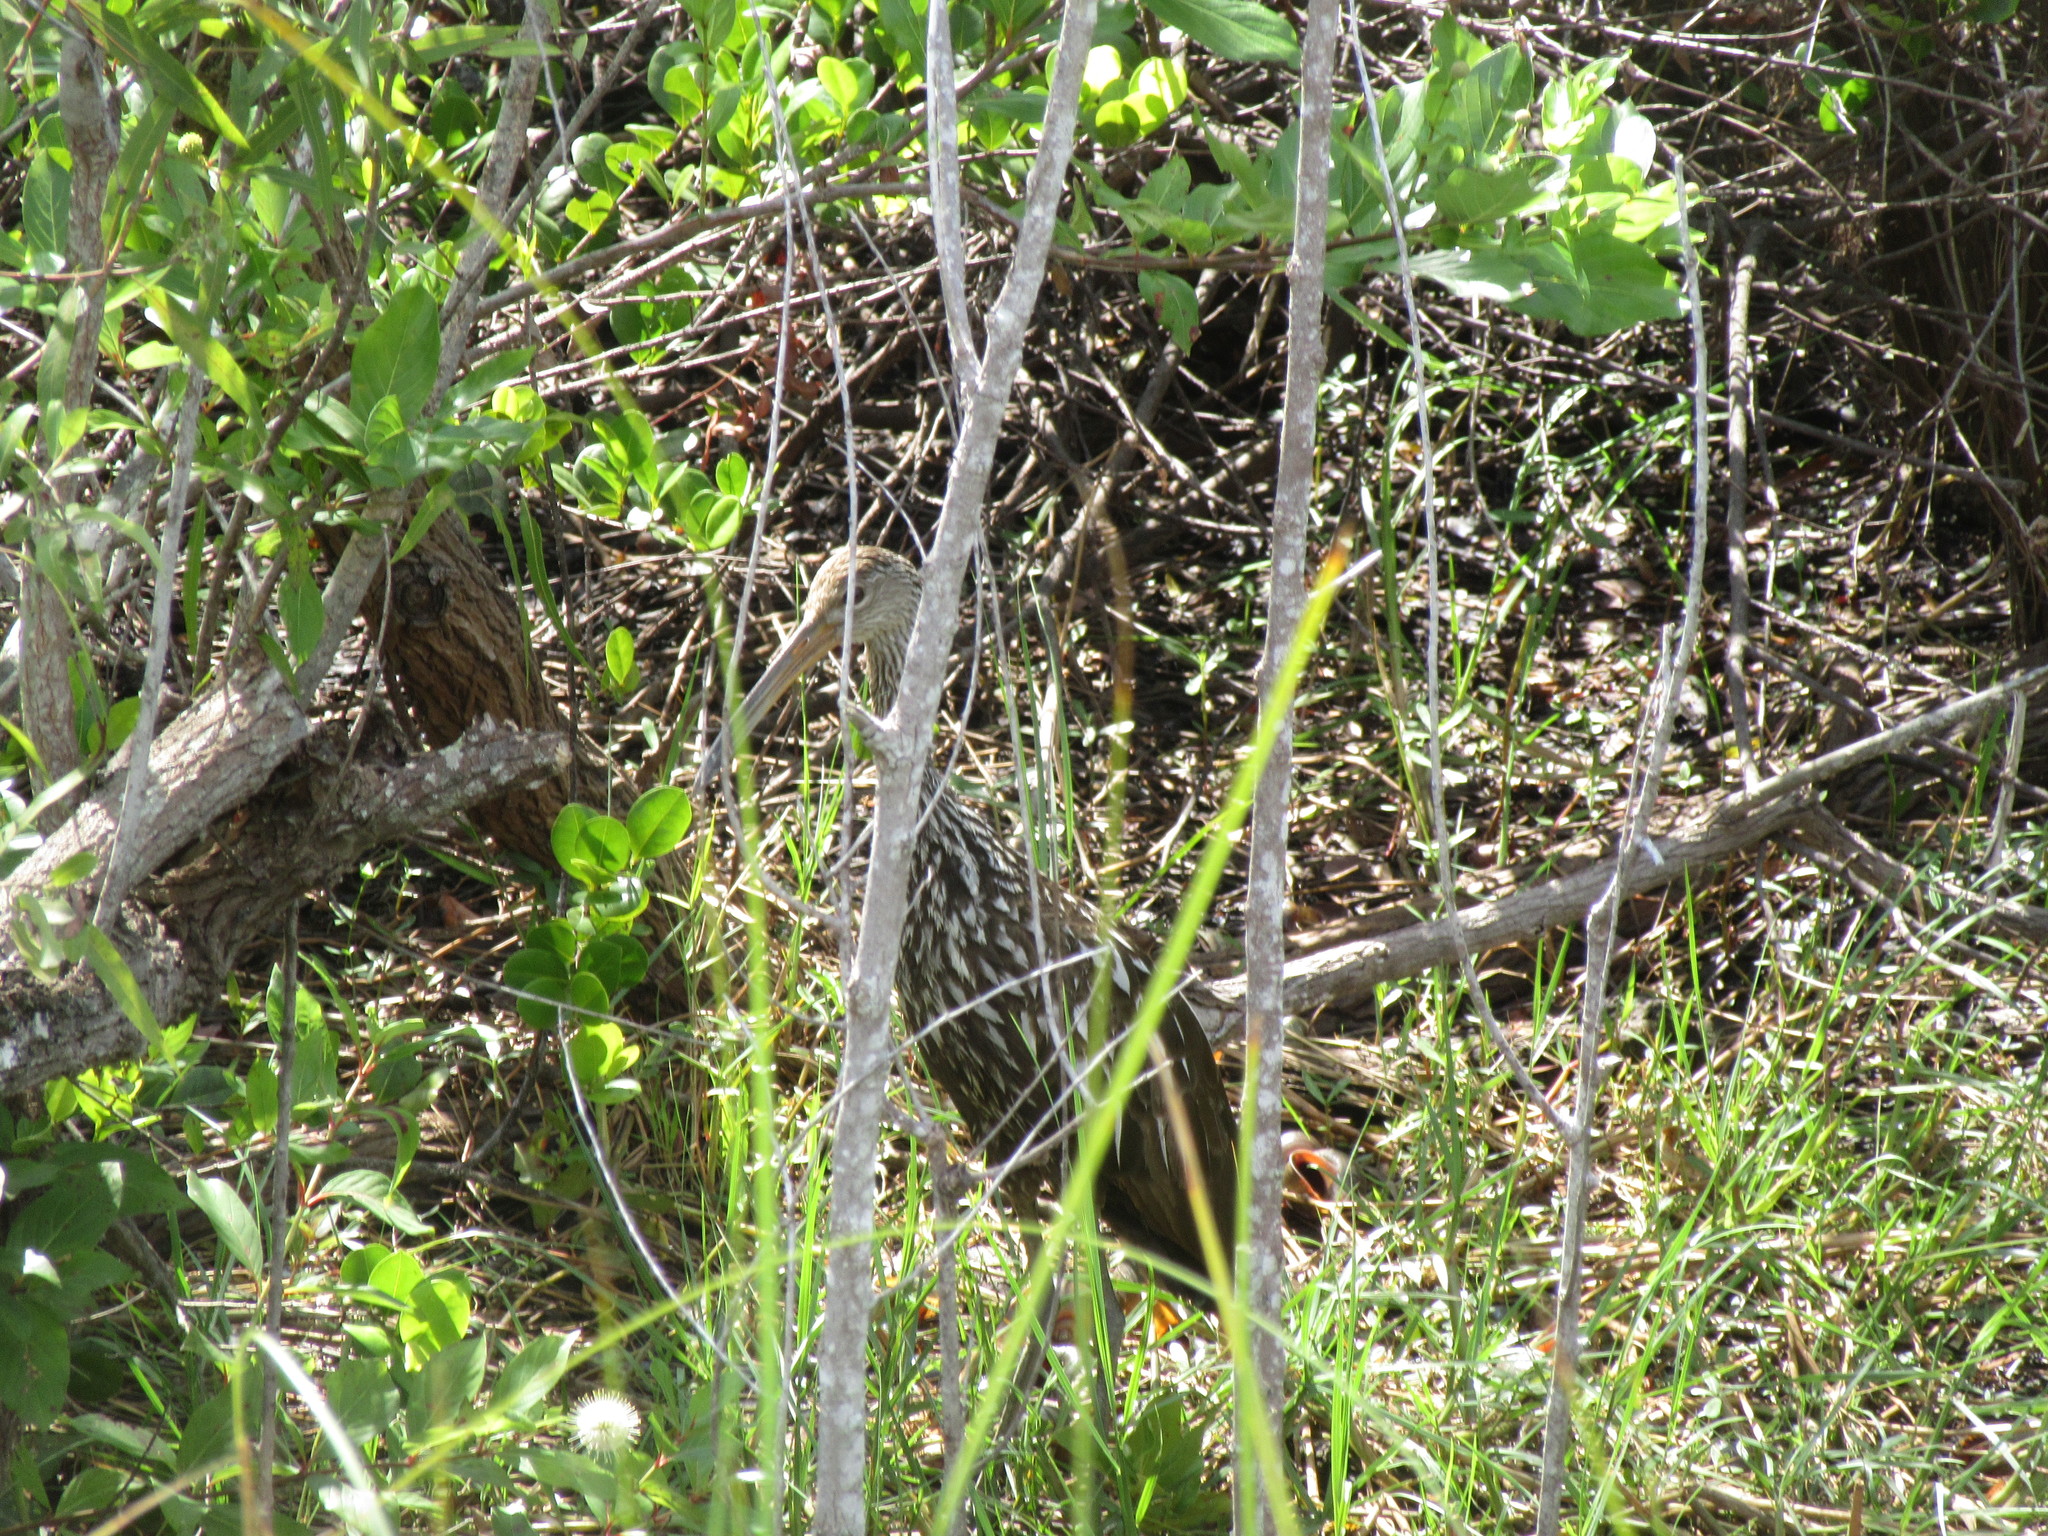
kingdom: Animalia
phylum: Chordata
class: Aves
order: Gruiformes
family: Aramidae
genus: Aramus
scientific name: Aramus guarauna
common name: Limpkin
